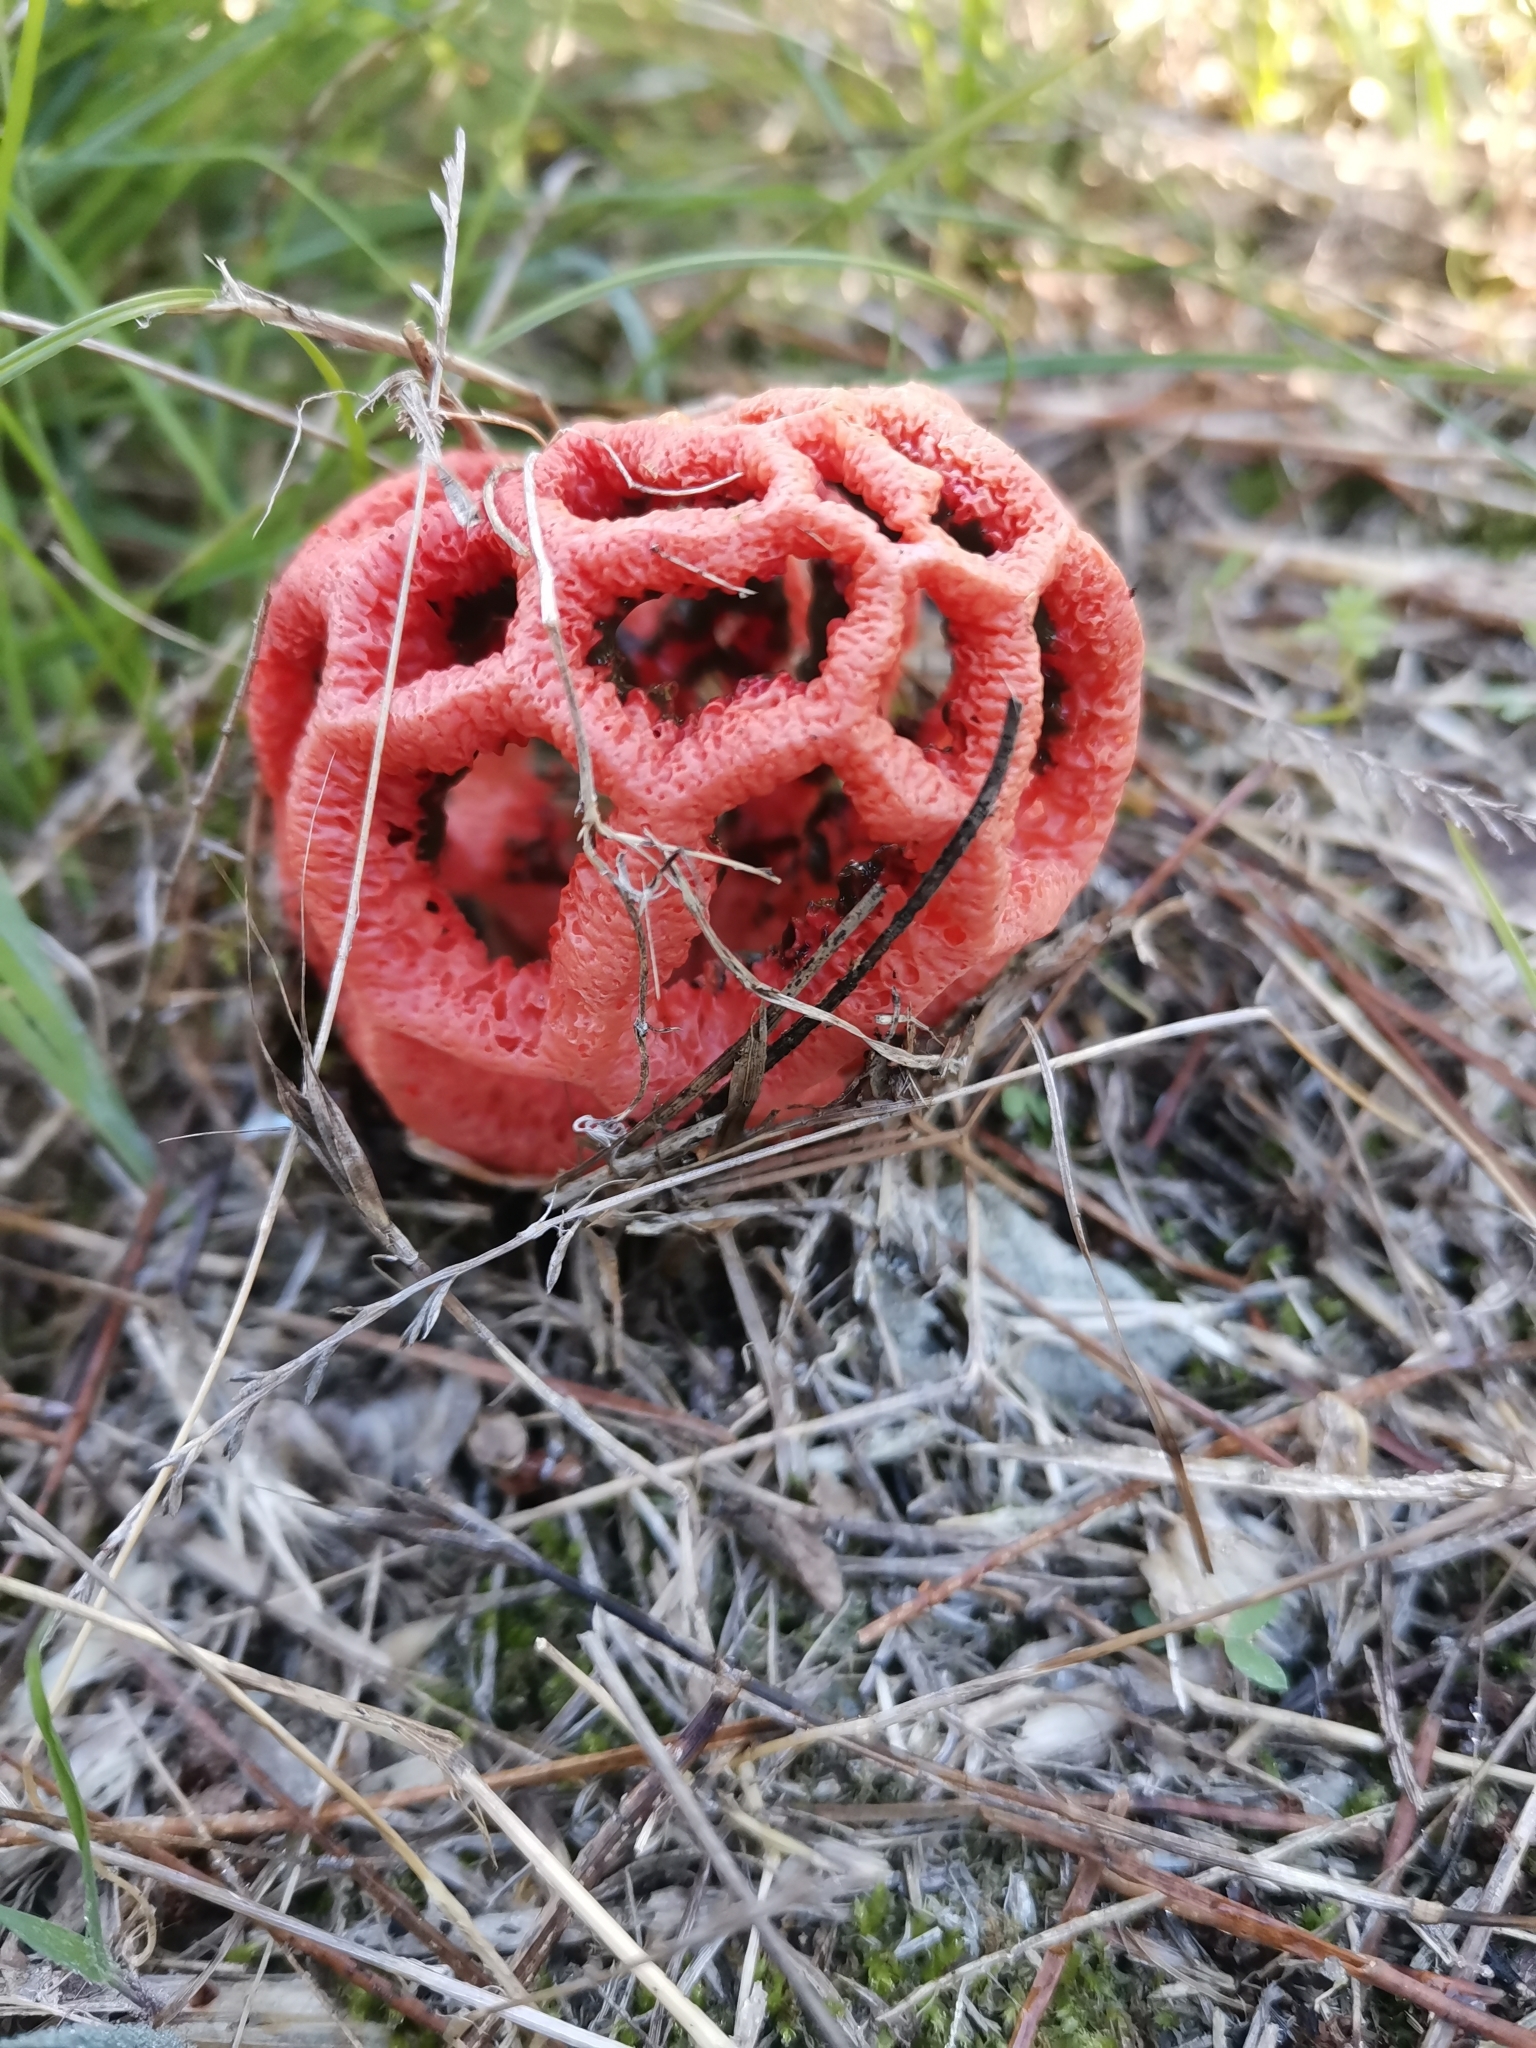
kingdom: Fungi
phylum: Basidiomycota
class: Agaricomycetes
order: Phallales
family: Phallaceae
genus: Clathrus
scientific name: Clathrus ruber
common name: Red cage
